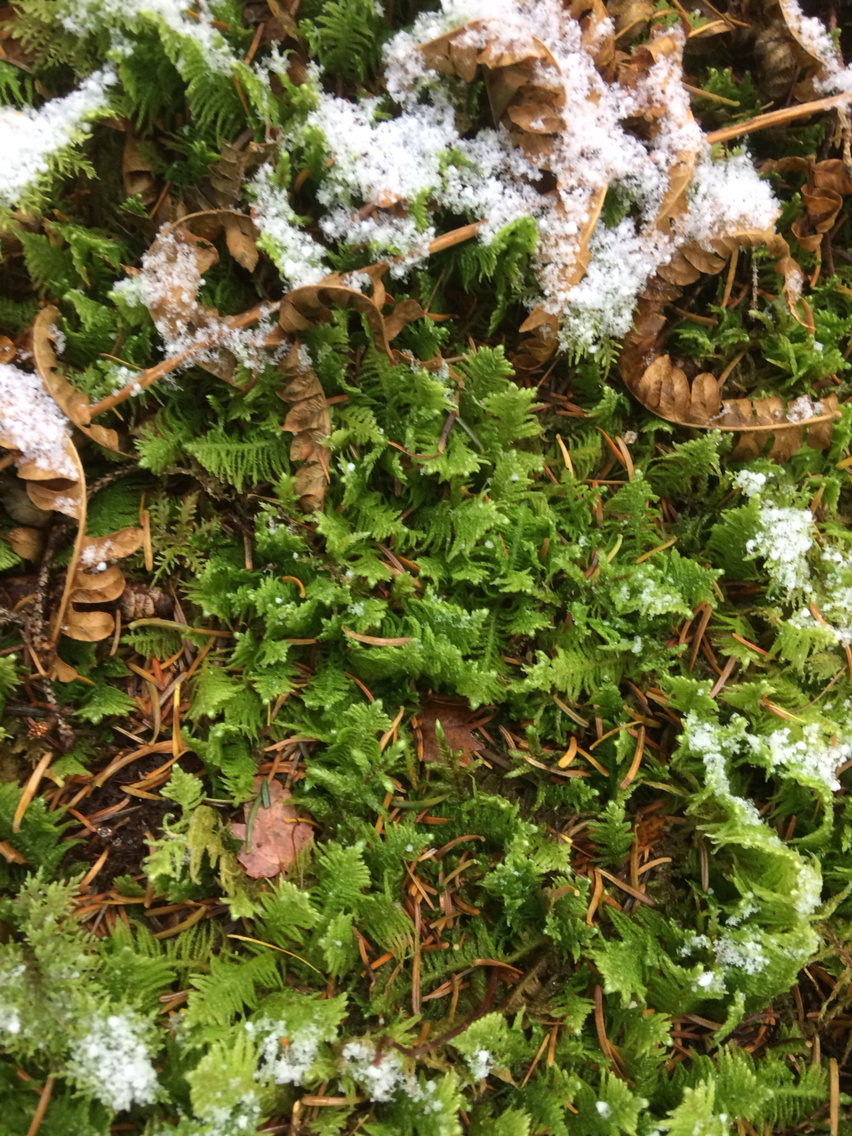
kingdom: Plantae
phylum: Bryophyta
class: Bryopsida
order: Hypnales
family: Pylaisiaceae
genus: Ptilium
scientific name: Ptilium crista-castrensis
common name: Knight's plume moss
